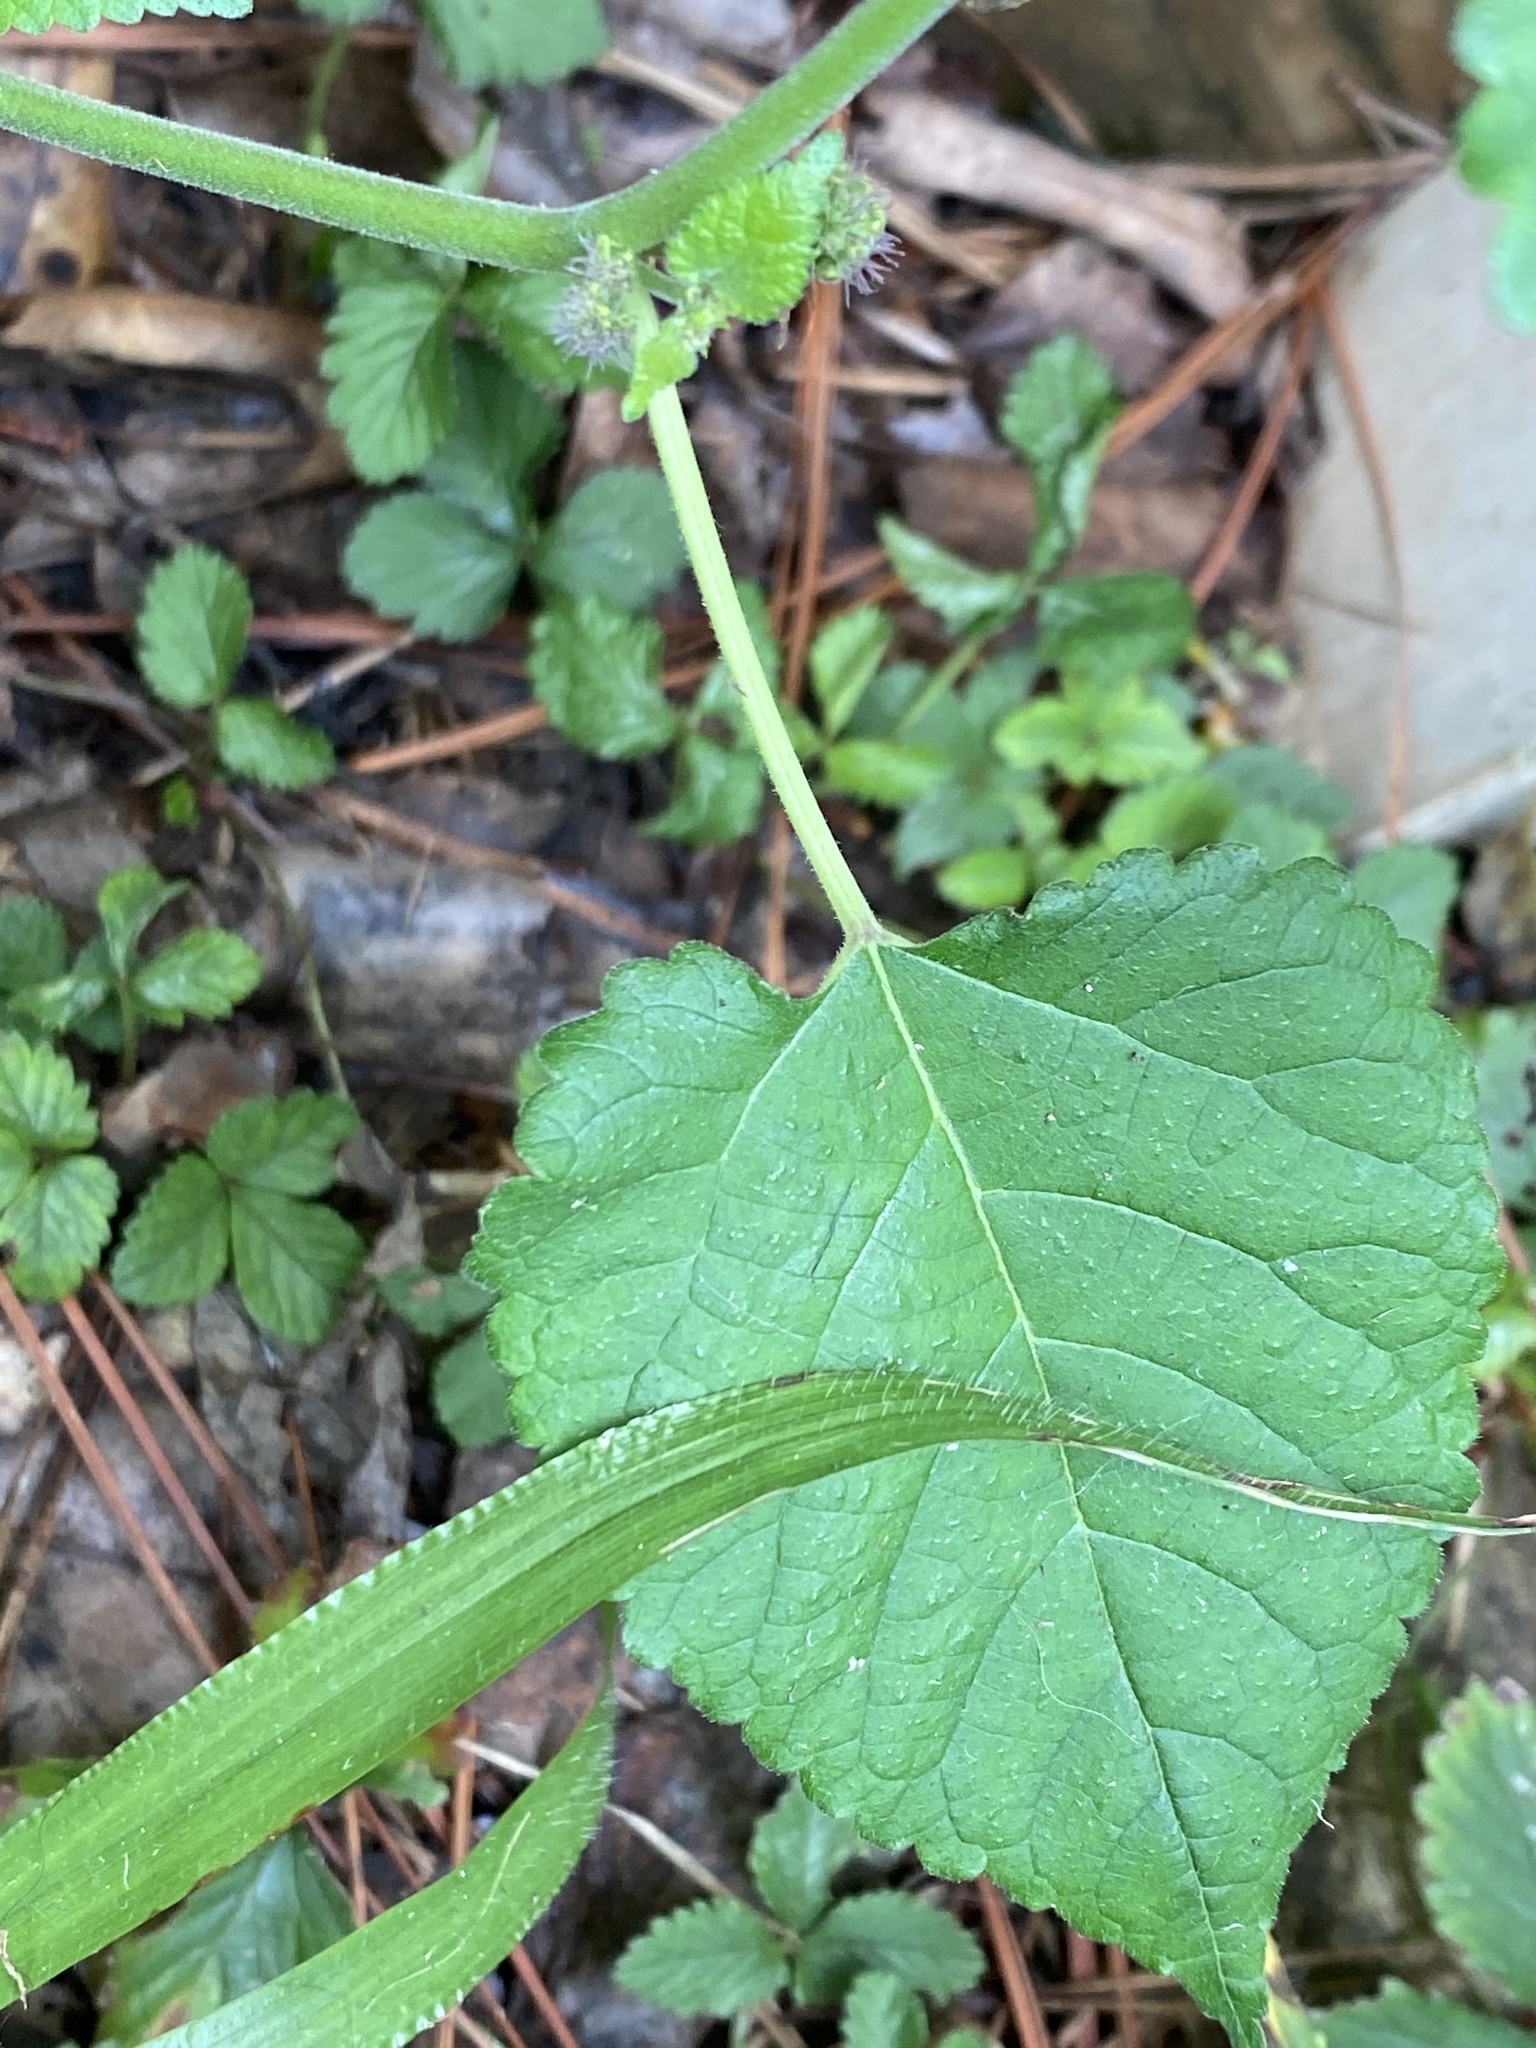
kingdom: Plantae
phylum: Tracheophyta
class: Magnoliopsida
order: Rosales
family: Moraceae
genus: Fatoua
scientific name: Fatoua villosa
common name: Hairy crabweed
